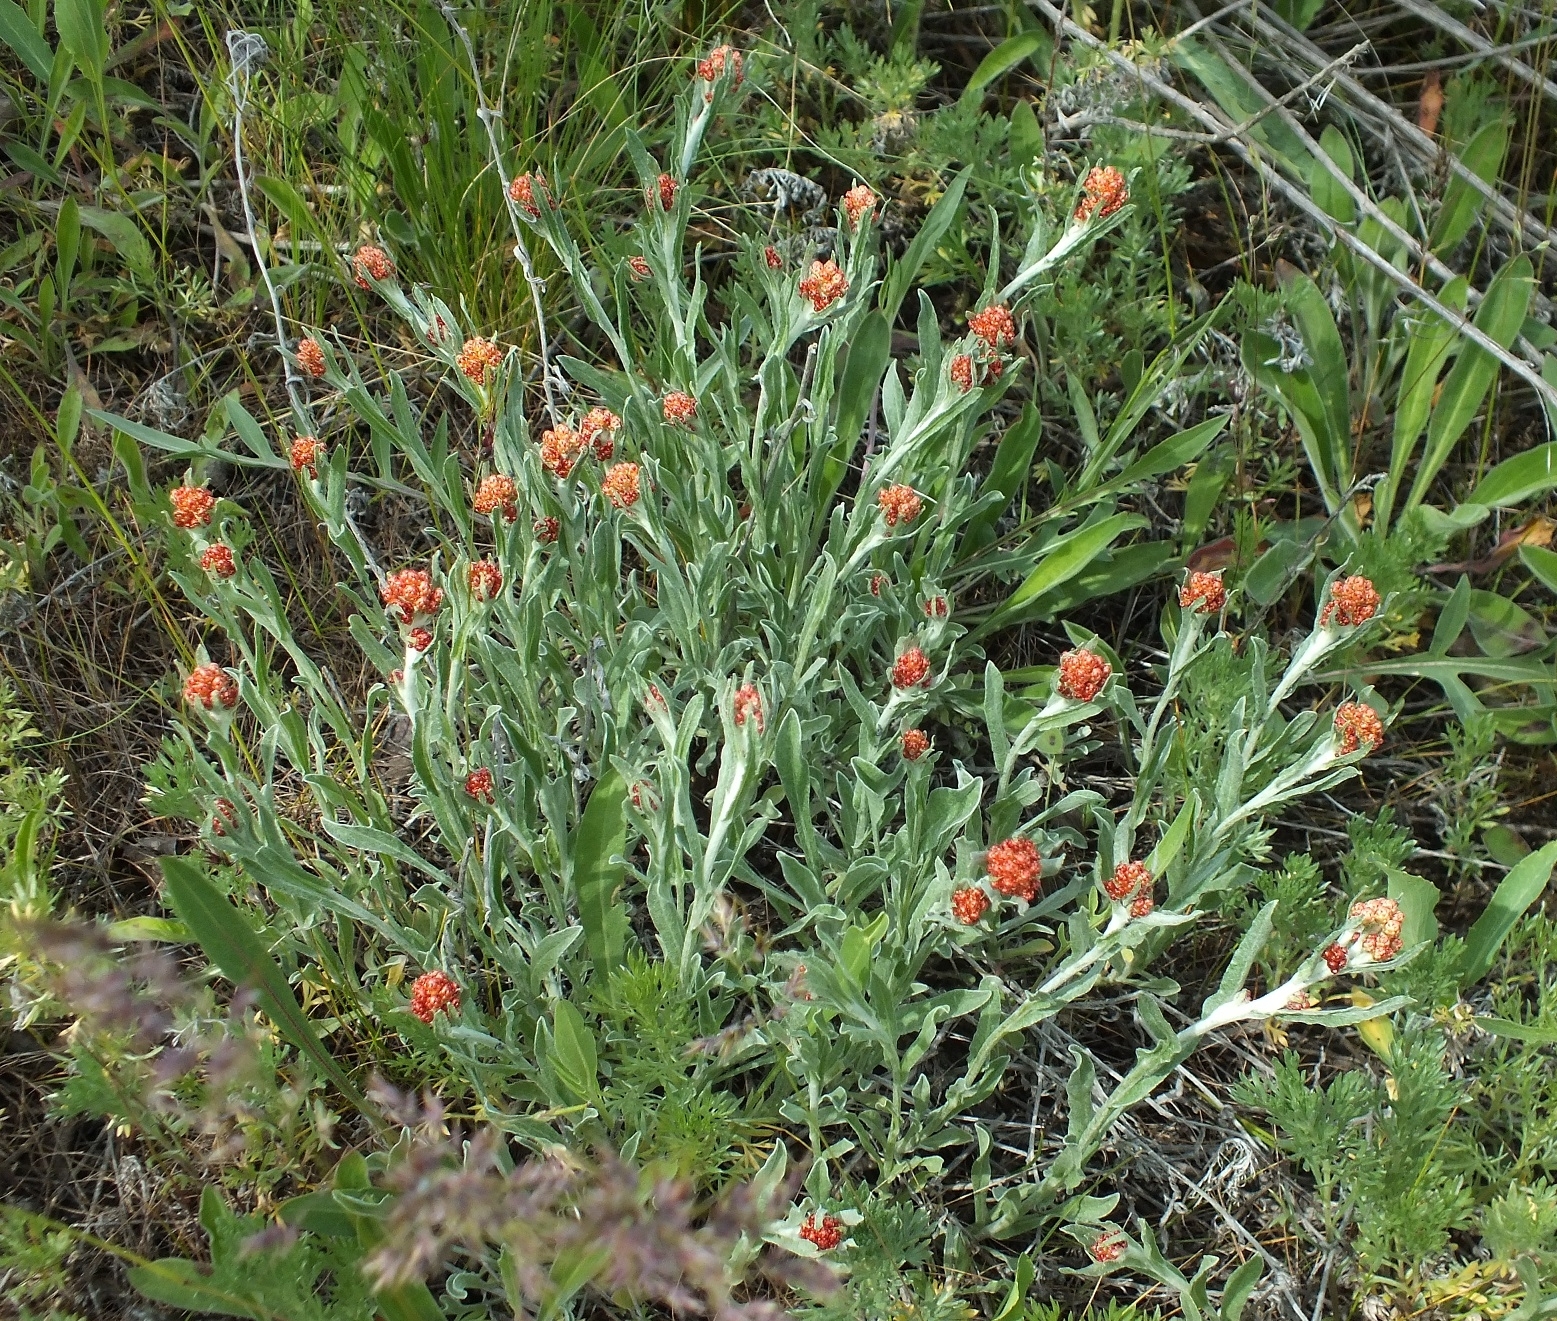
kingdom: Plantae
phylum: Tracheophyta
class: Magnoliopsida
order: Asterales
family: Asteraceae
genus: Helichrysum
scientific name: Helichrysum arenarium
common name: Strawflower
